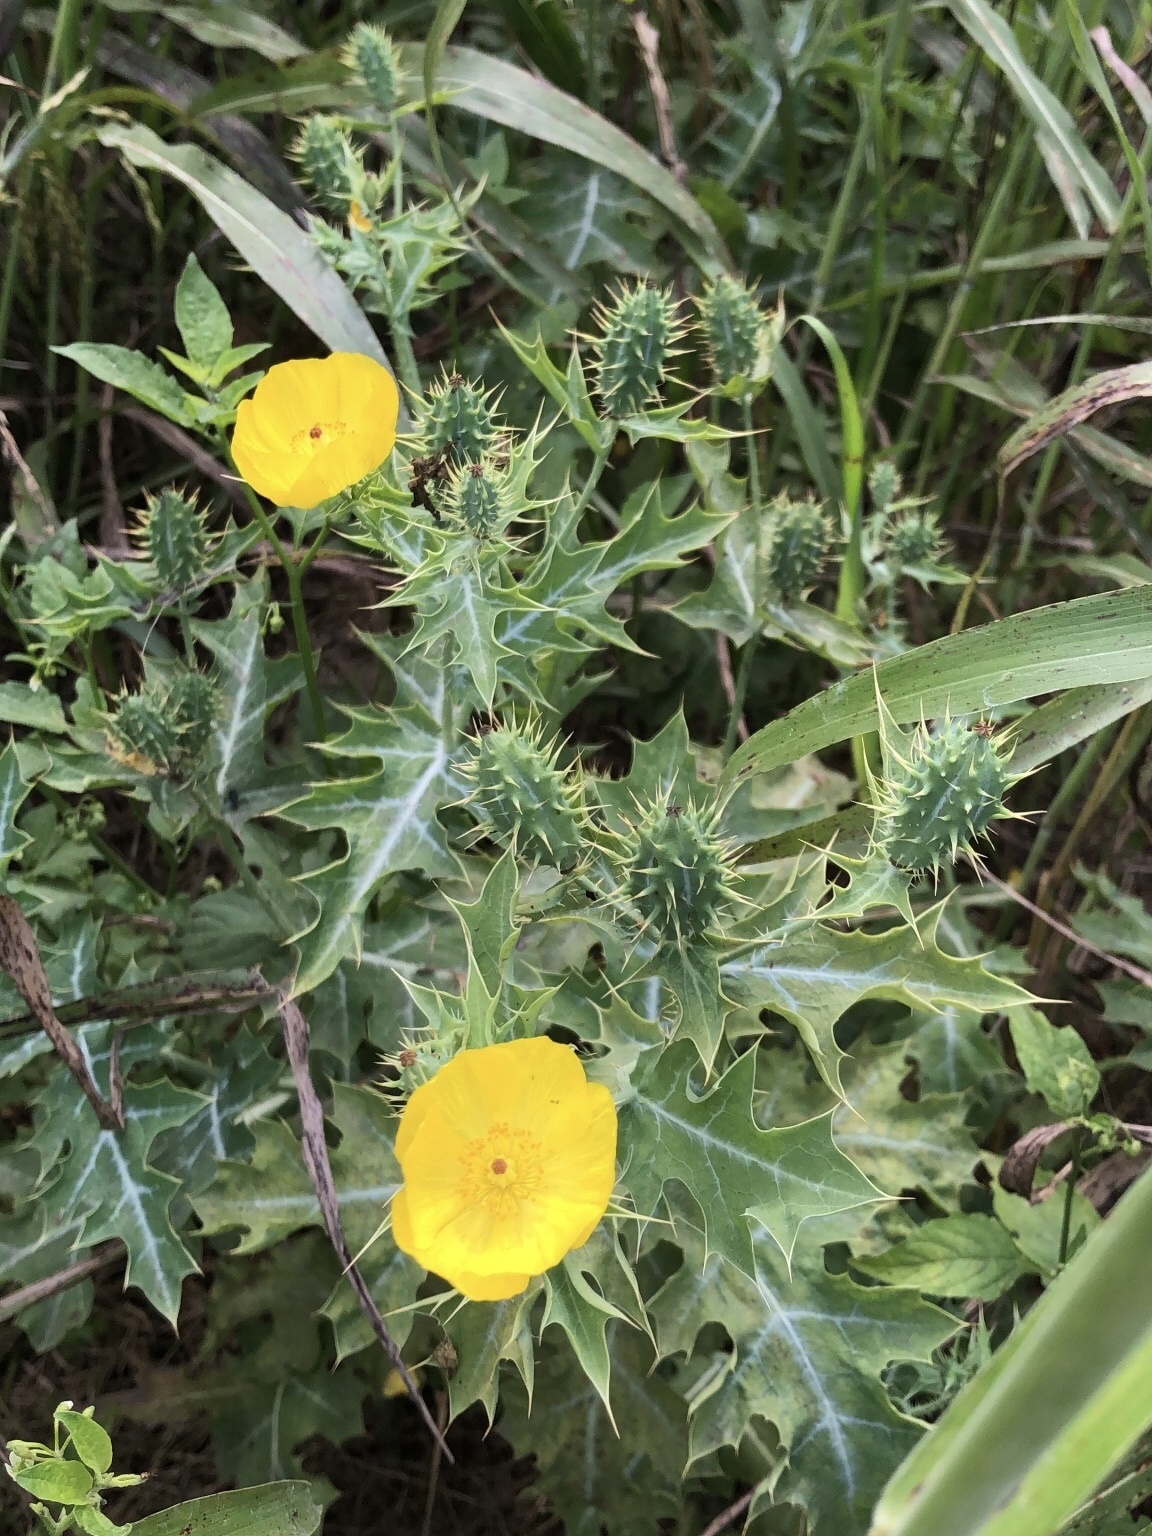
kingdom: Plantae
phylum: Tracheophyta
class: Magnoliopsida
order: Ranunculales
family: Papaveraceae
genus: Argemone
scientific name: Argemone mexicana
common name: Mexican poppy
